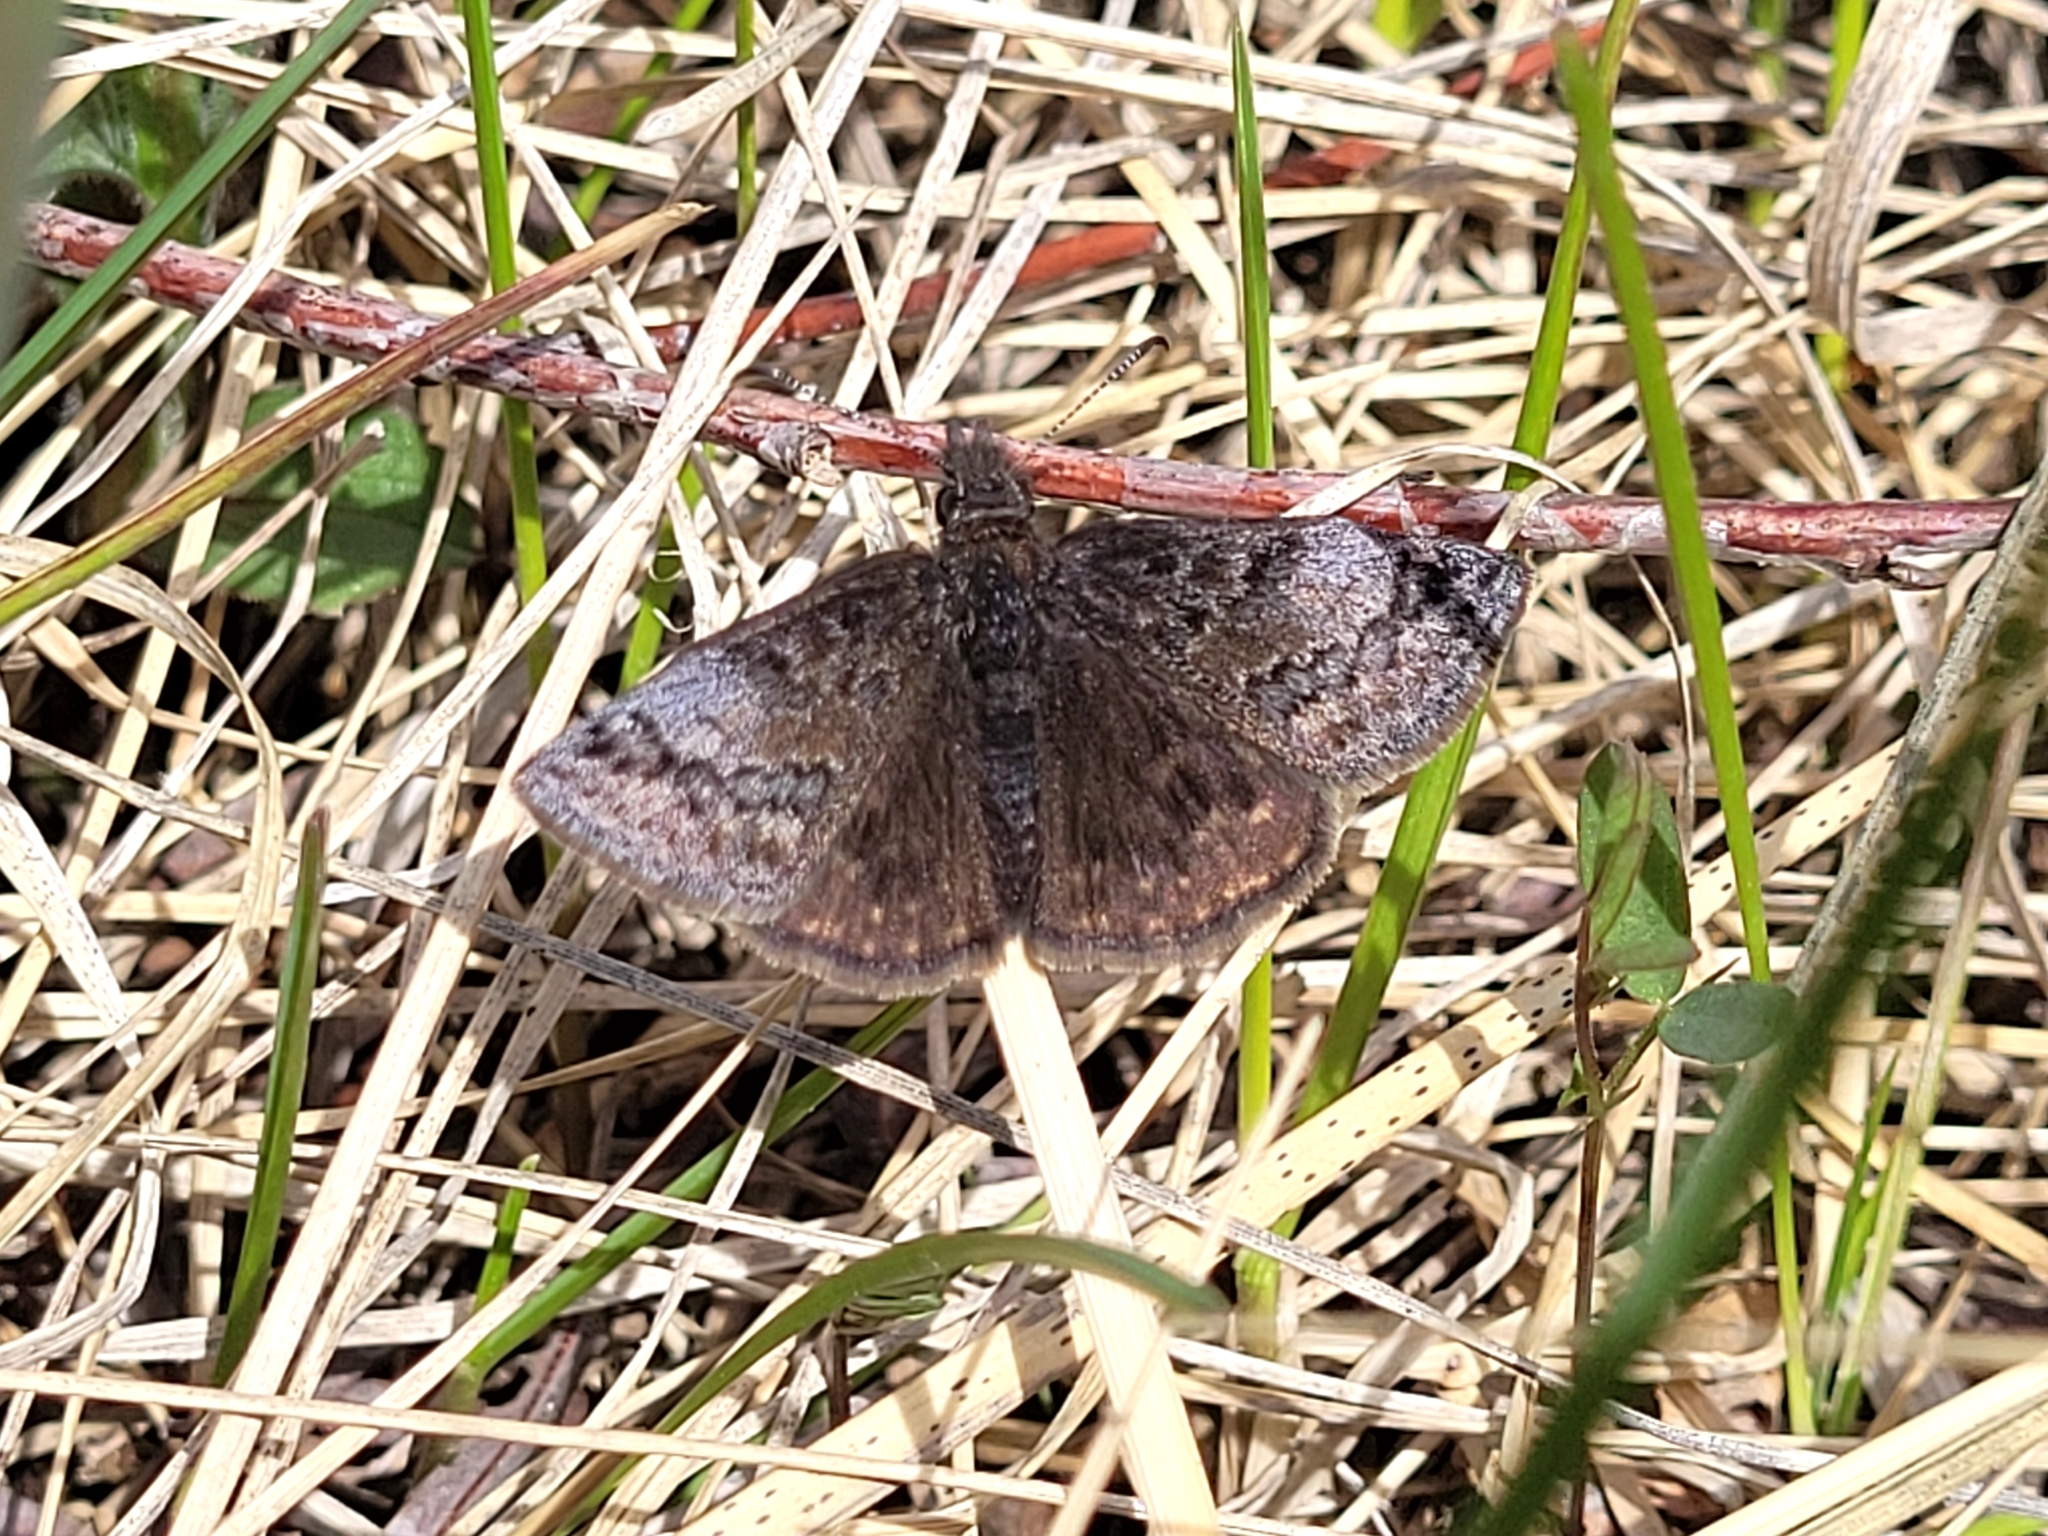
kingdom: Animalia
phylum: Arthropoda
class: Insecta
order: Lepidoptera
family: Hesperiidae
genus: Erynnis
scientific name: Erynnis icelus
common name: Dreamy duskywing
